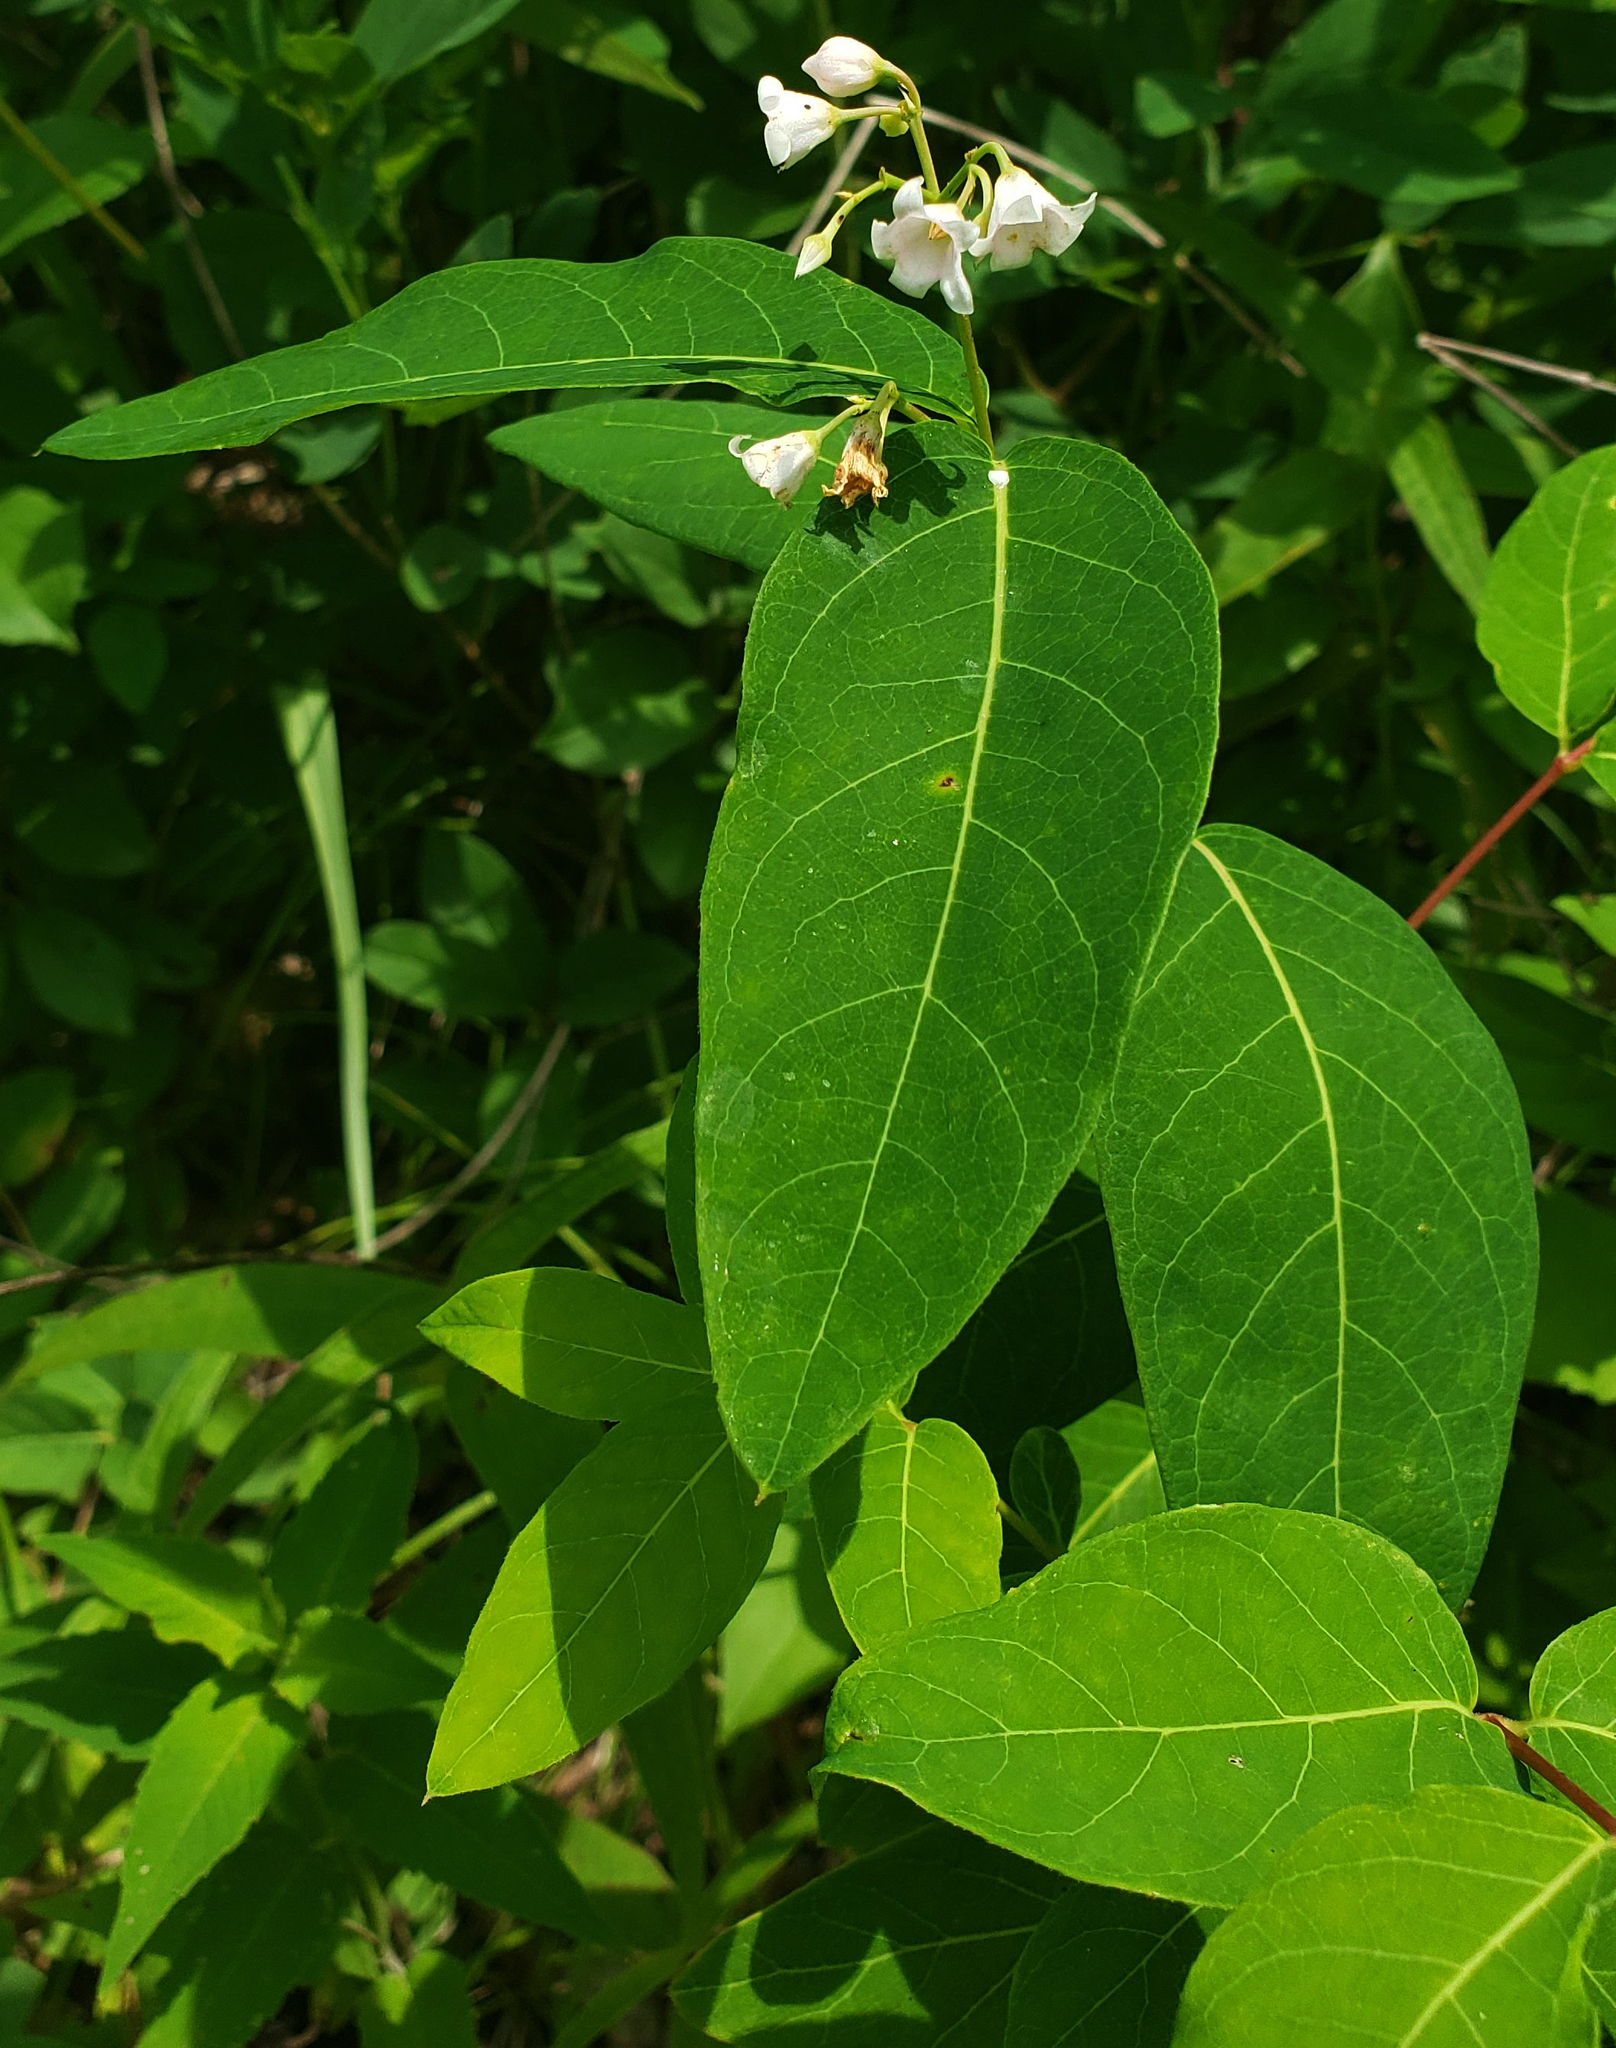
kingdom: Plantae
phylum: Tracheophyta
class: Magnoliopsida
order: Gentianales
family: Apocynaceae
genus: Apocynum
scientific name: Apocynum androsaemifolium
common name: Spreading dogbane
